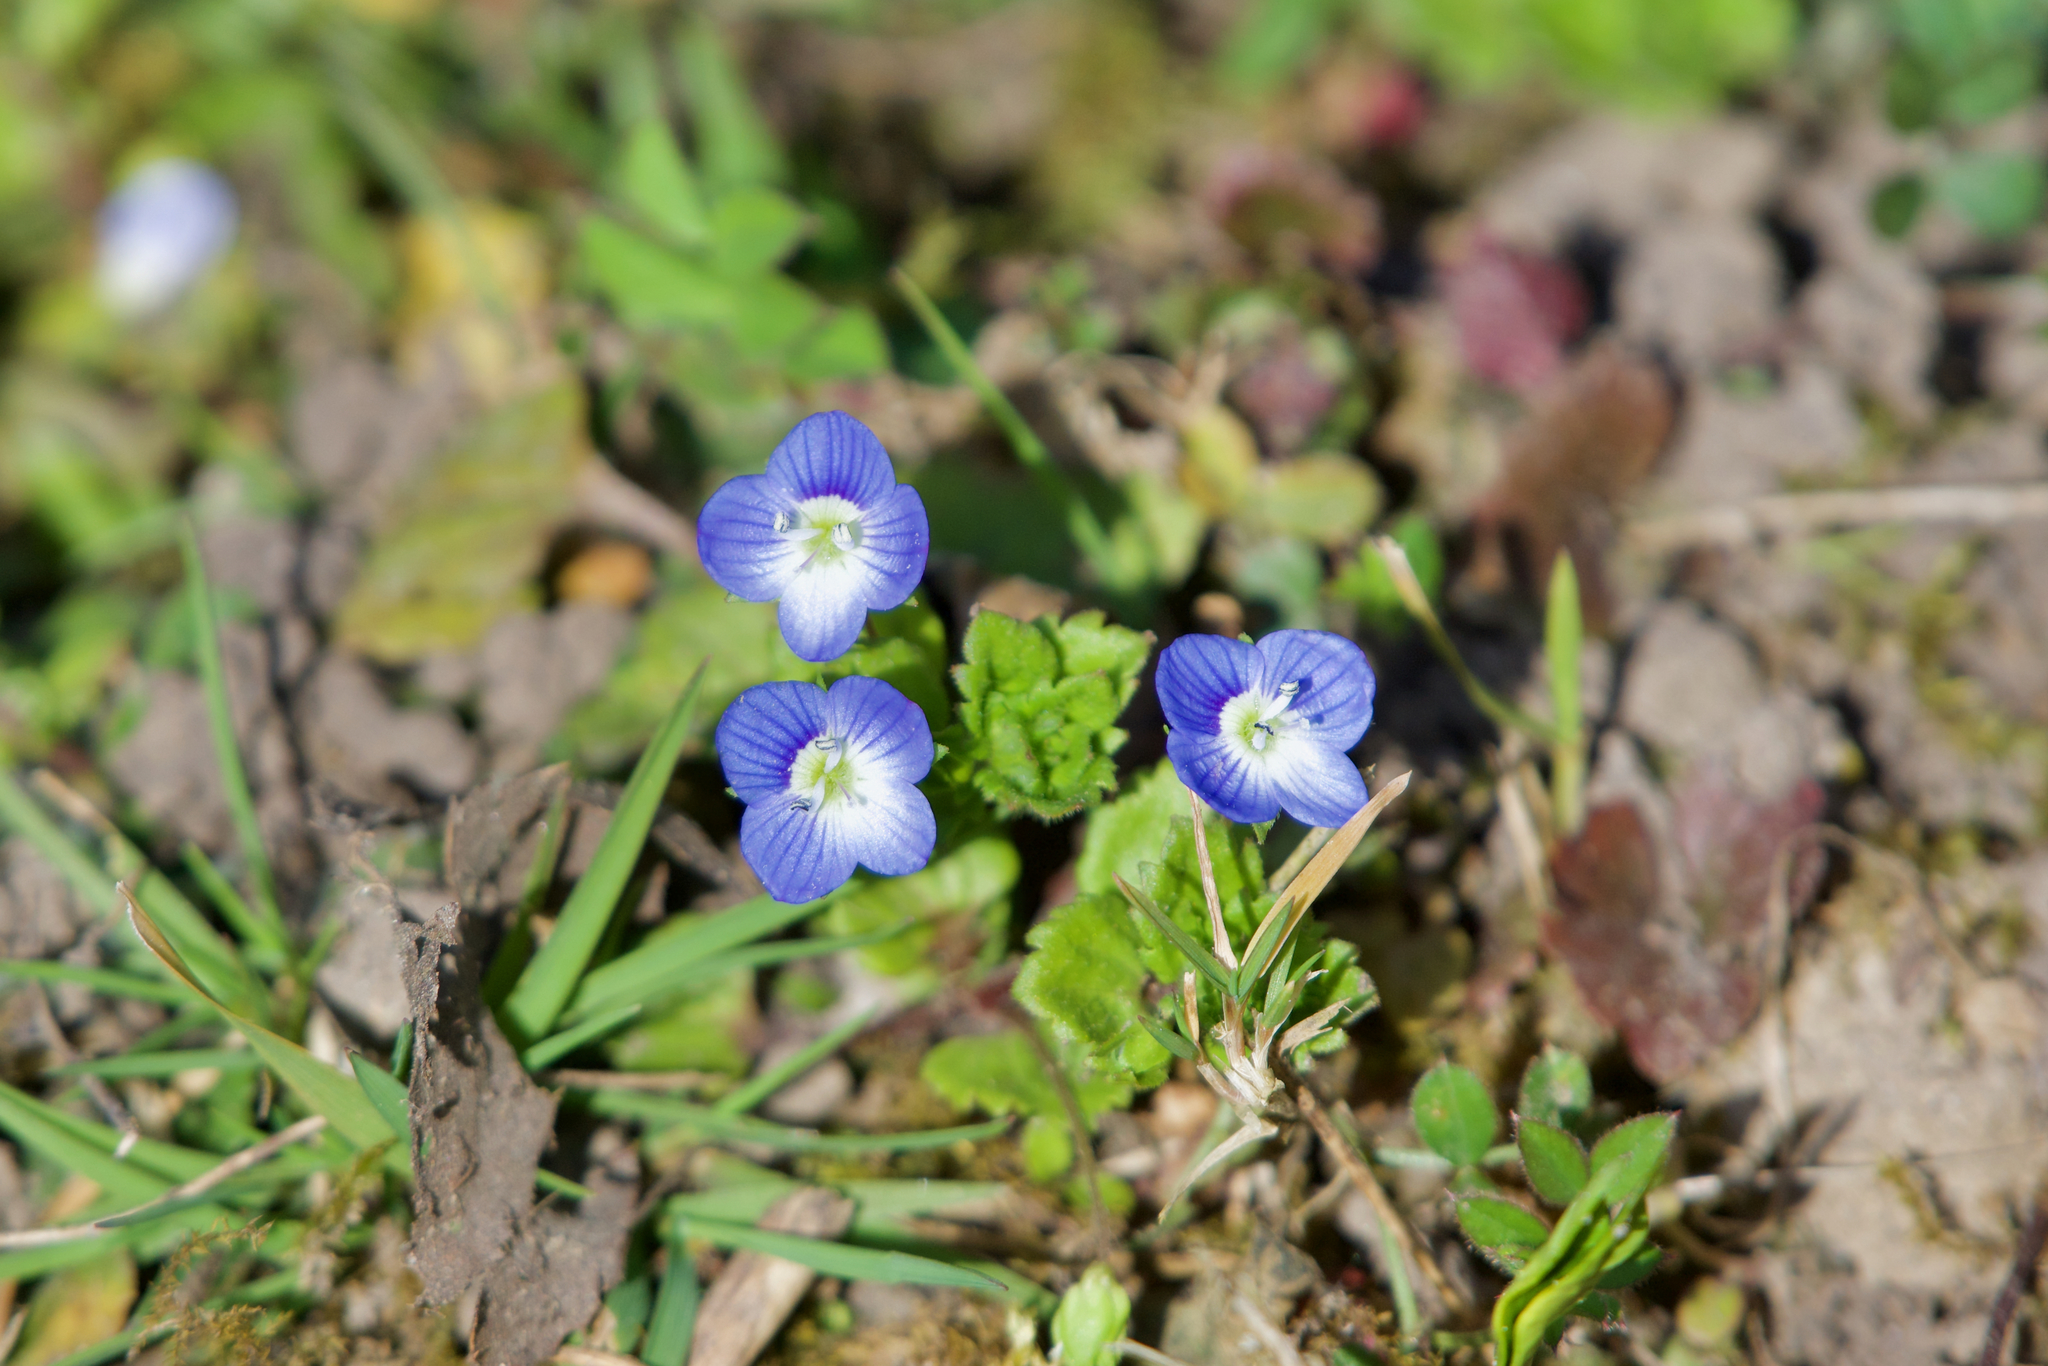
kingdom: Plantae
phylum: Tracheophyta
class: Magnoliopsida
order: Lamiales
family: Plantaginaceae
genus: Veronica
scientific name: Veronica persica
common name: Common field-speedwell
